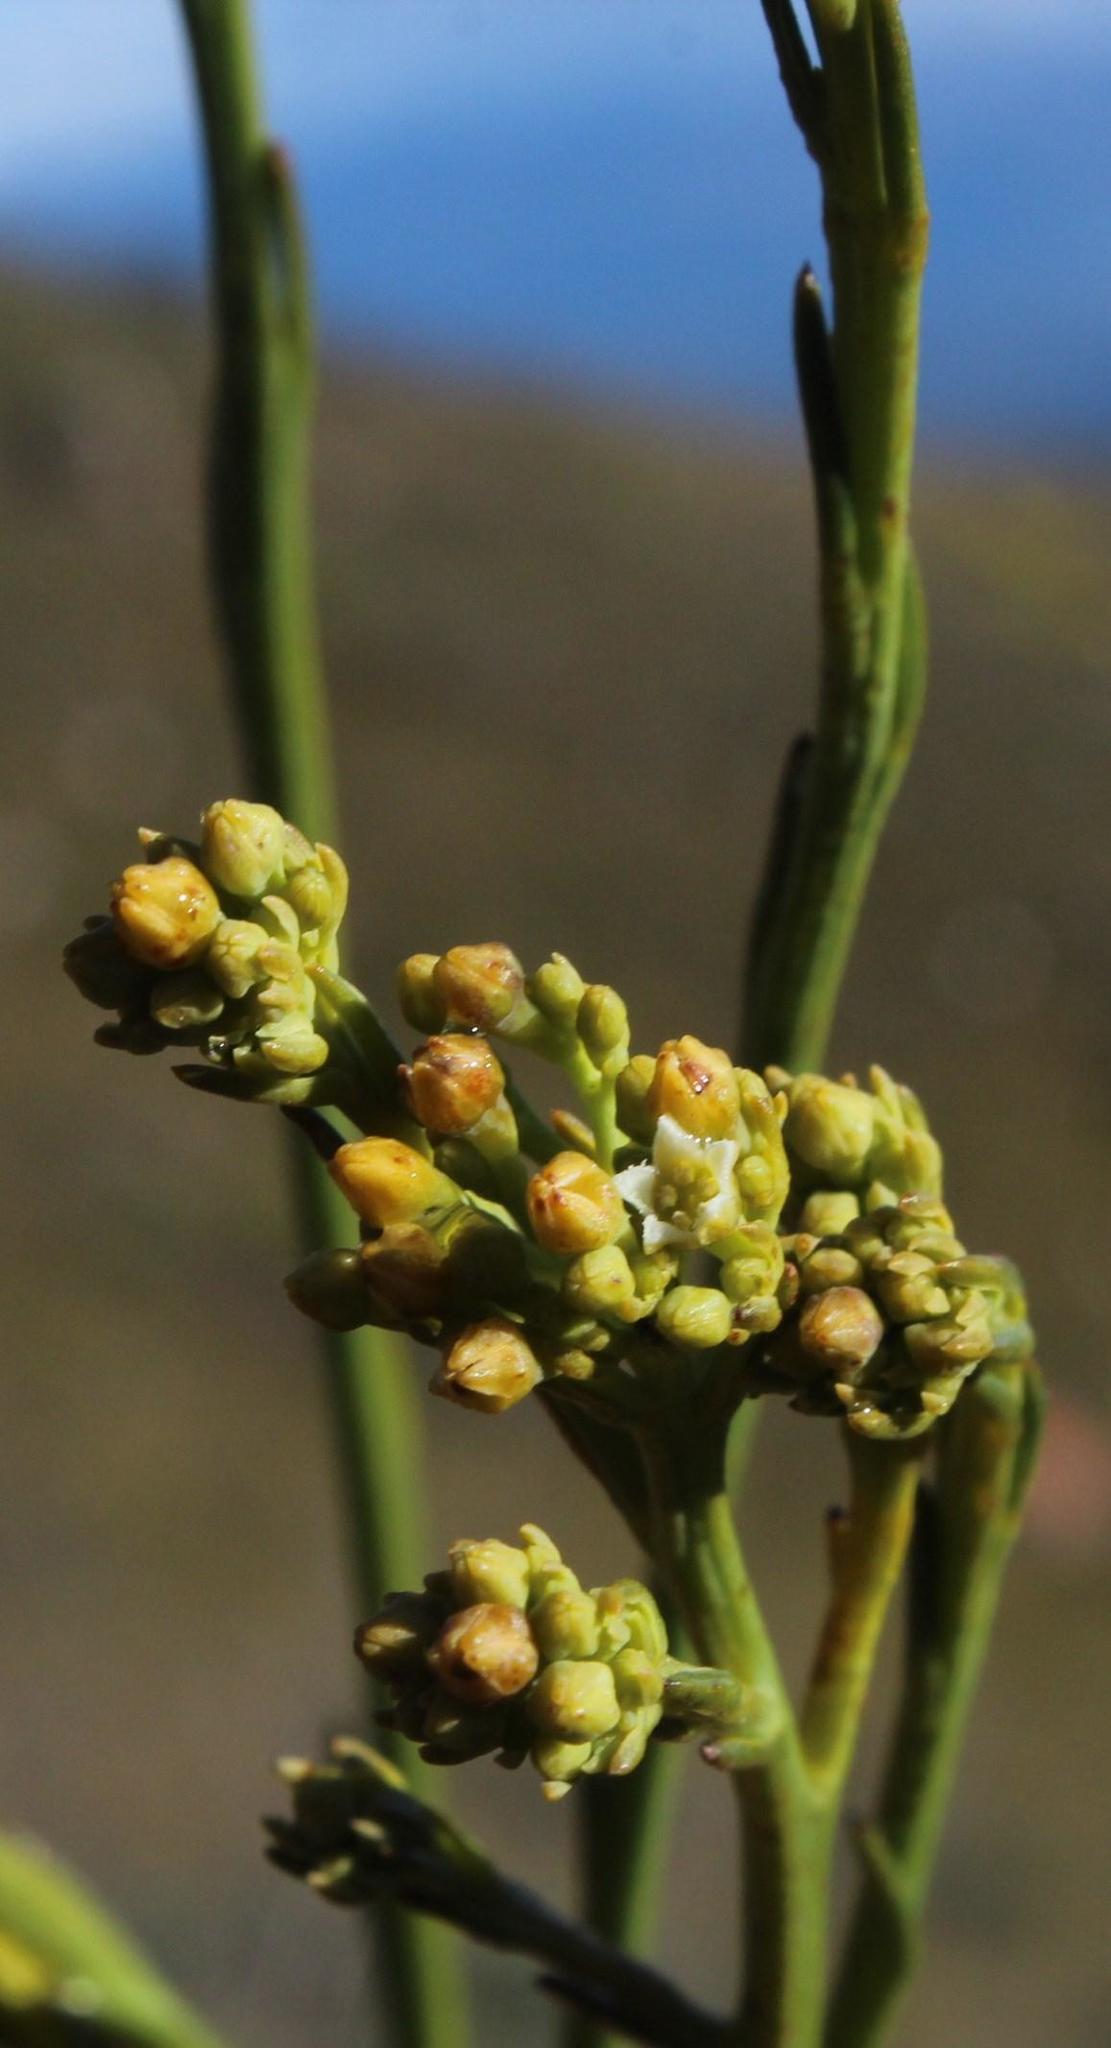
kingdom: Plantae
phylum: Tracheophyta
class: Magnoliopsida
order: Santalales
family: Thesiaceae
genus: Thesium
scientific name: Thesium strictum
